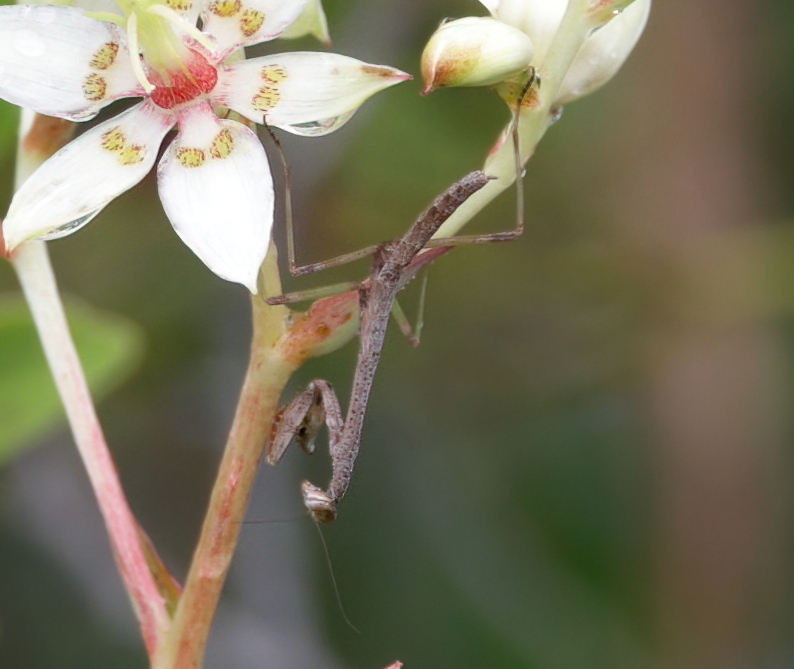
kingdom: Animalia
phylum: Arthropoda
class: Insecta
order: Mantodea
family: Mantidae
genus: Stagmomantis
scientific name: Stagmomantis carolina
